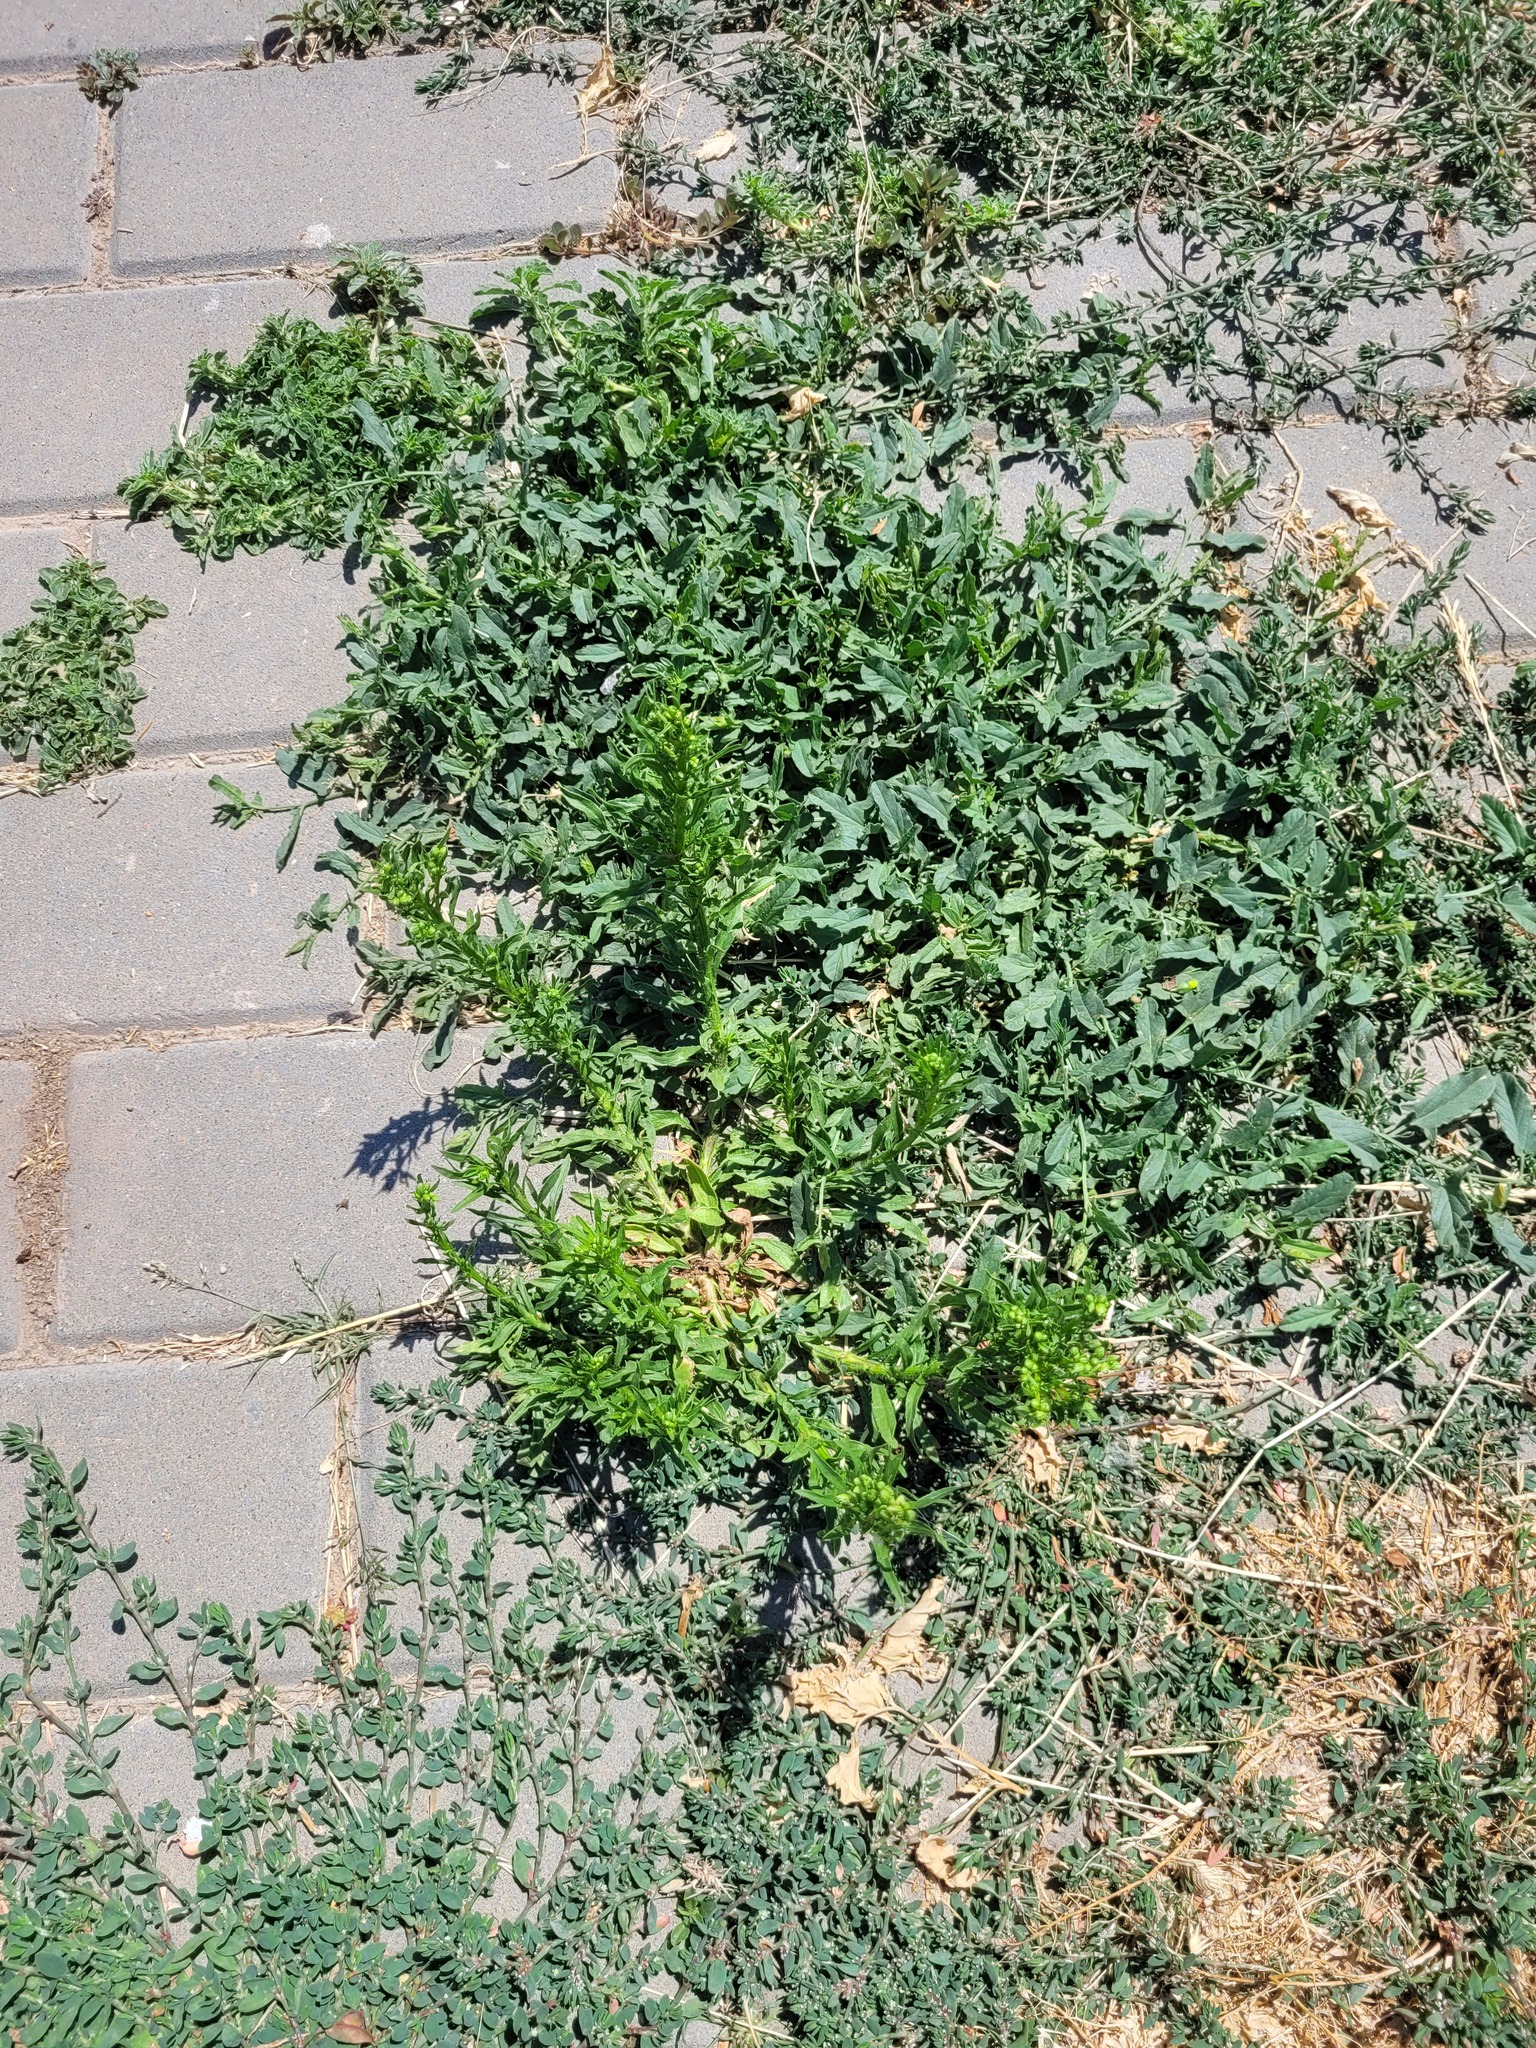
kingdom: Plantae
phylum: Tracheophyta
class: Magnoliopsida
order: Asterales
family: Asteraceae
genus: Erigeron
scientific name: Erigeron canadensis
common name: Canadian fleabane
